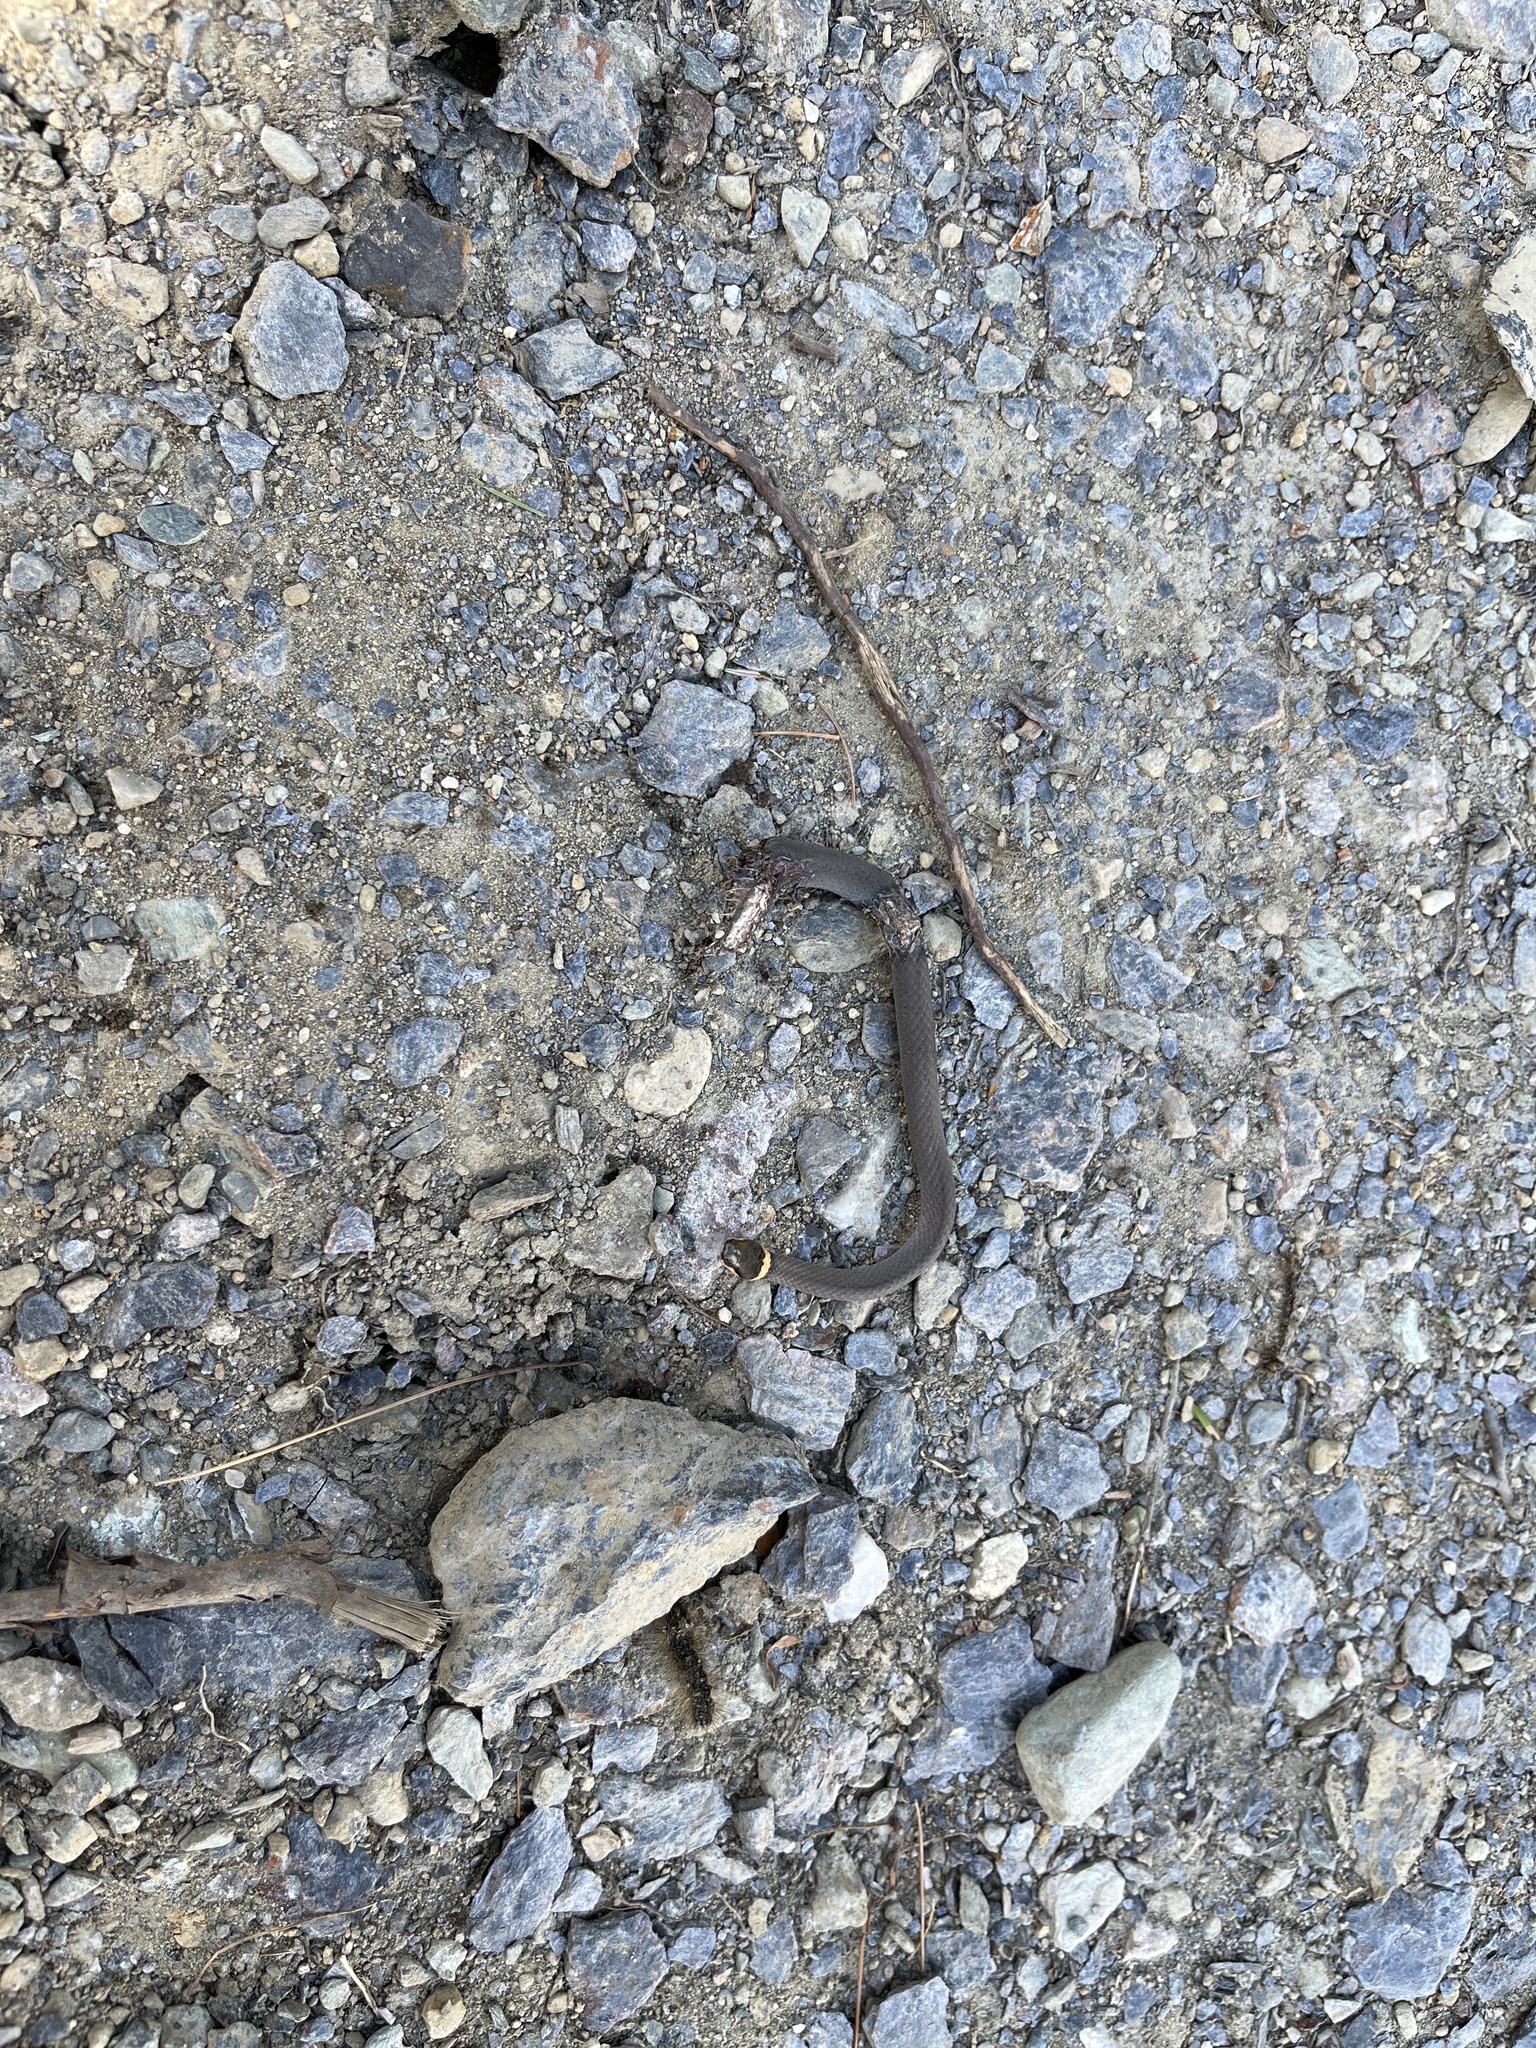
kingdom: Animalia
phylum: Chordata
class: Squamata
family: Colubridae
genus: Diadophis
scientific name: Diadophis punctatus
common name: Ringneck snake
